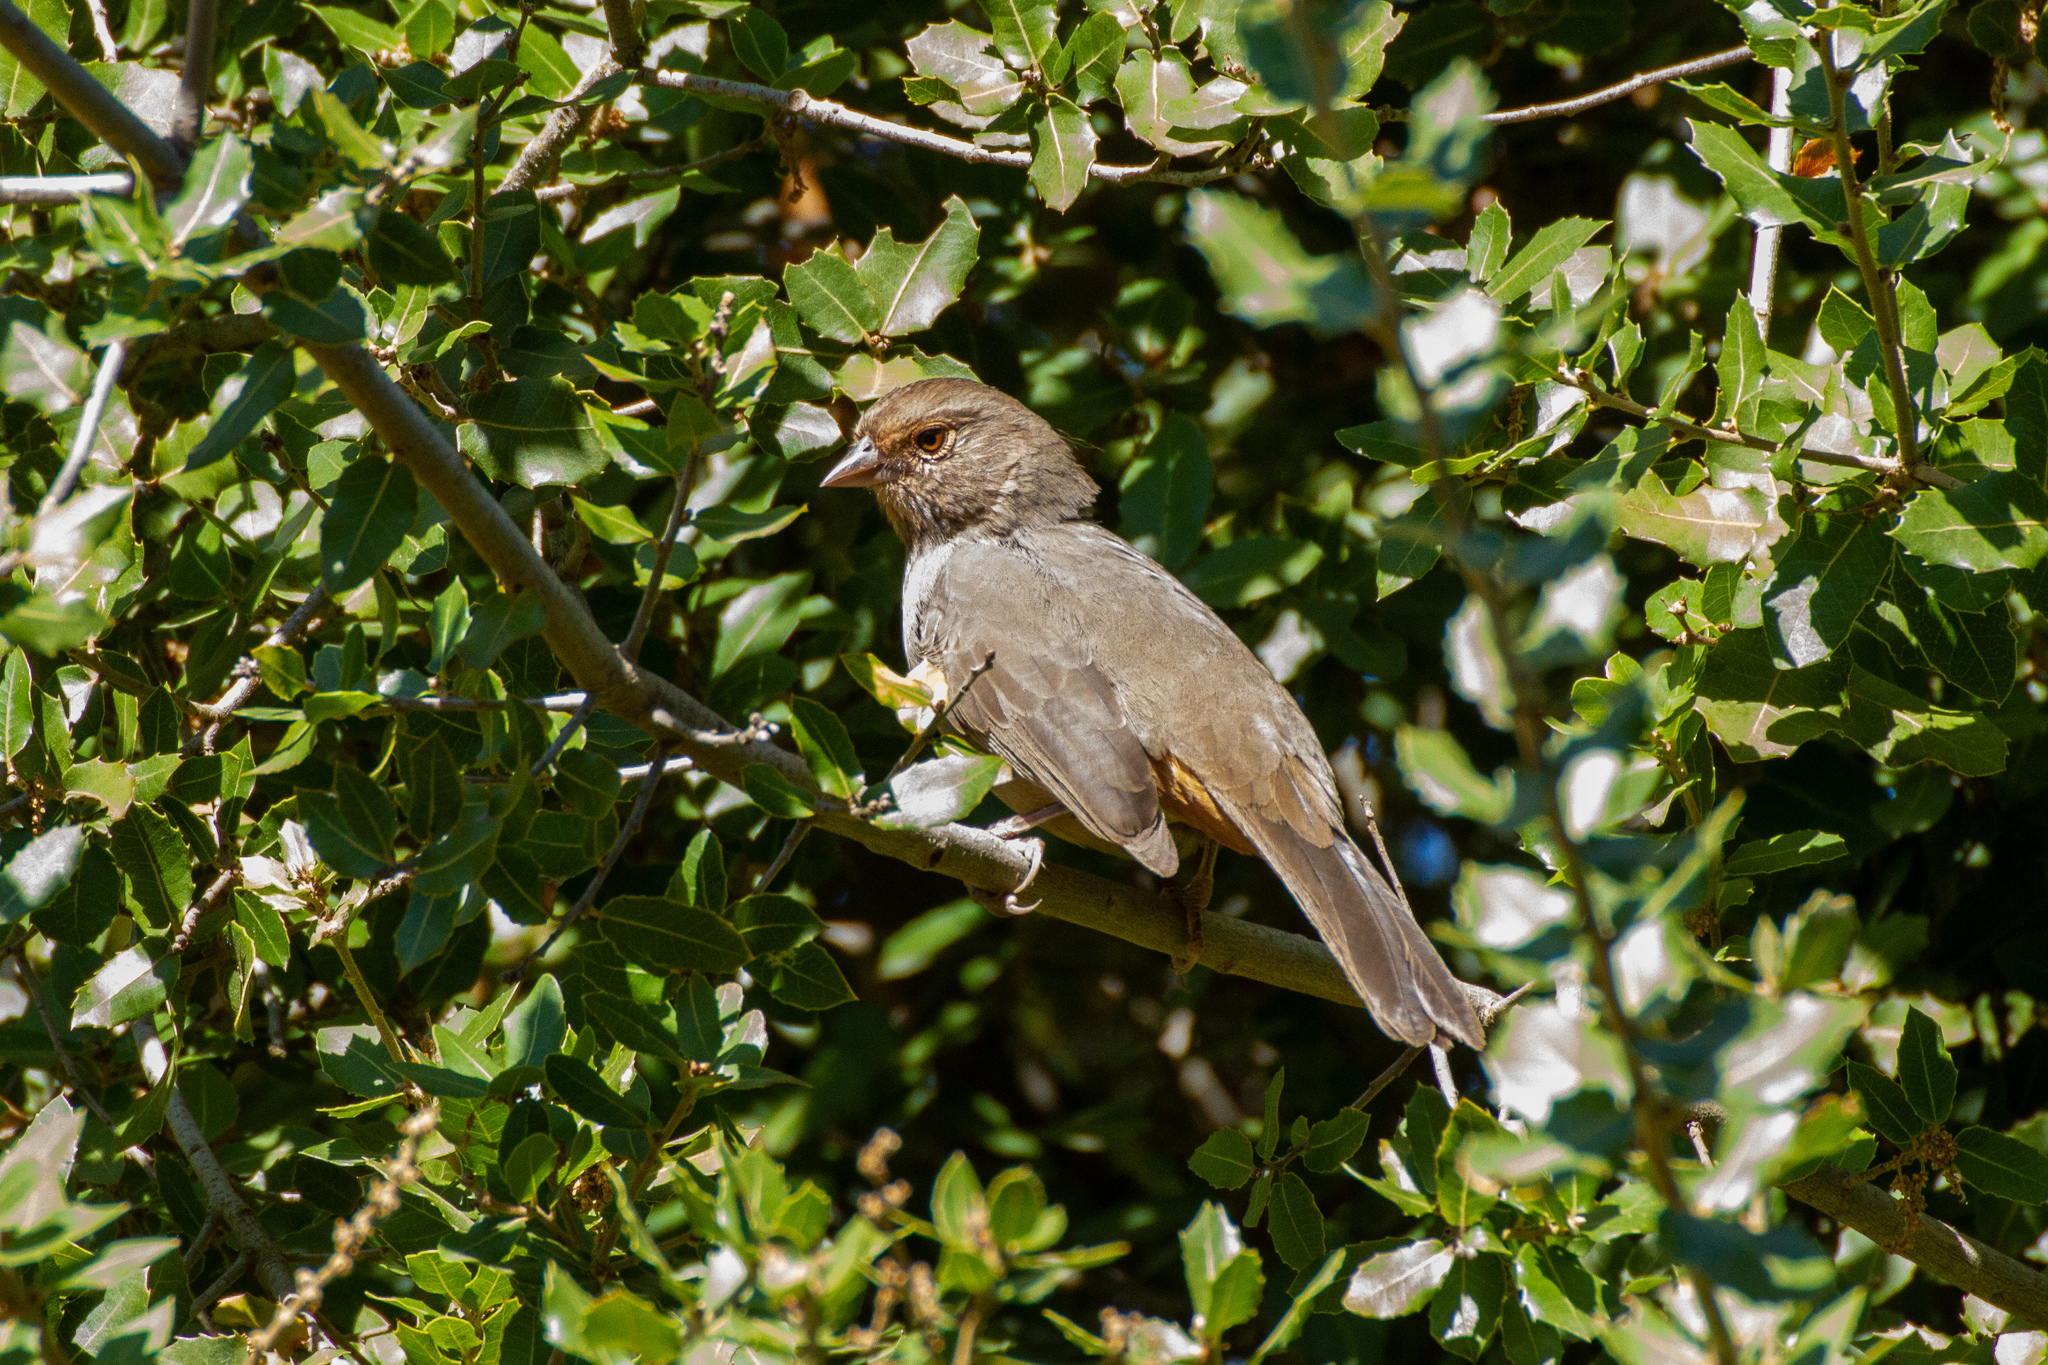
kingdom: Animalia
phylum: Chordata
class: Aves
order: Passeriformes
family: Passerellidae
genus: Melozone
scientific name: Melozone crissalis
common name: California towhee
